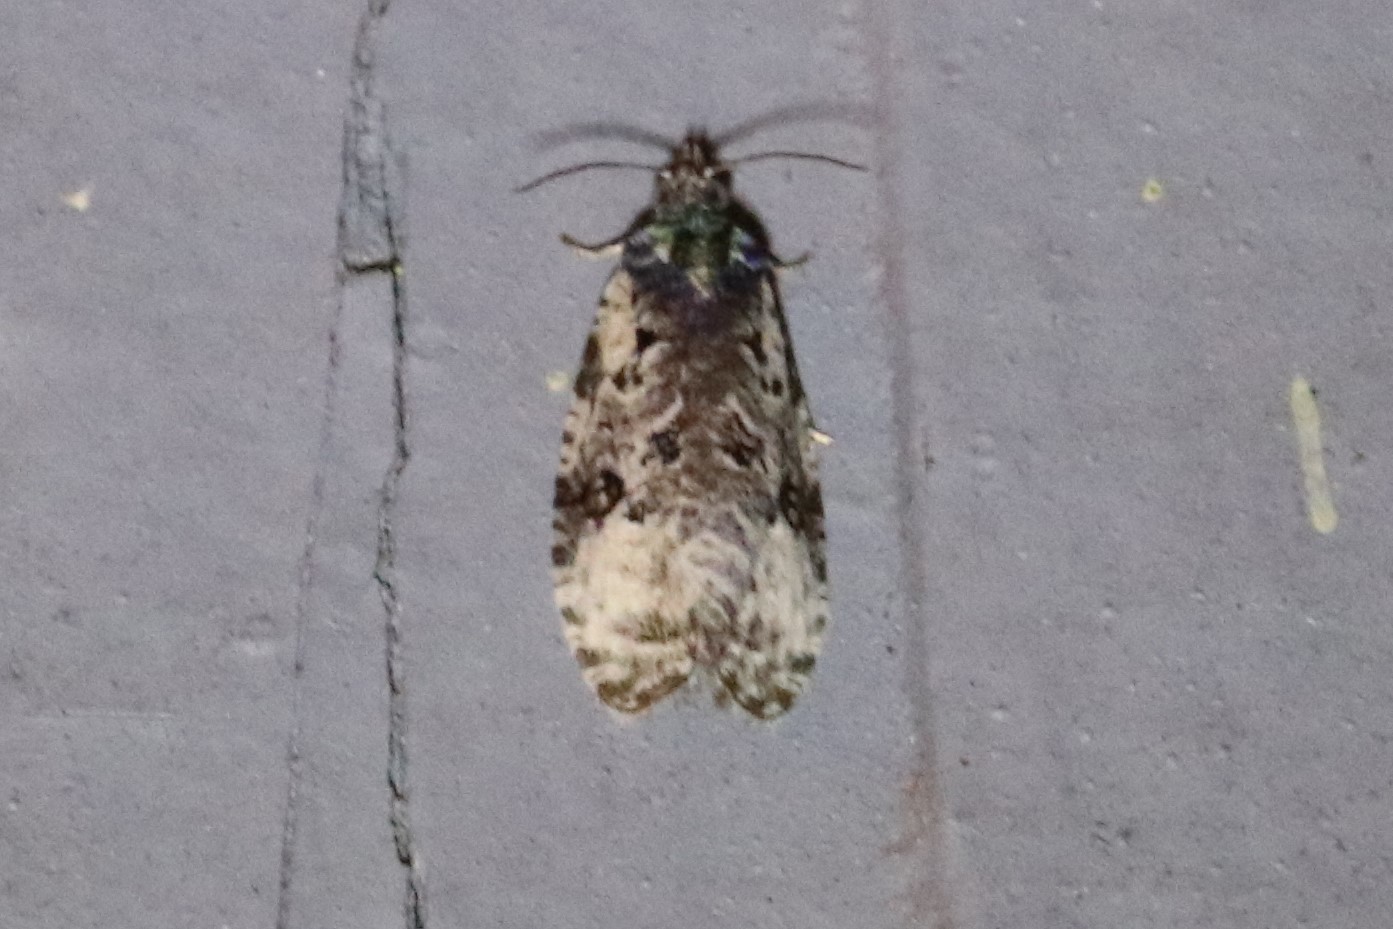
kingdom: Animalia
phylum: Arthropoda
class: Insecta
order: Lepidoptera
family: Tortricidae
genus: Apotomis
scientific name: Apotomis albeolana
